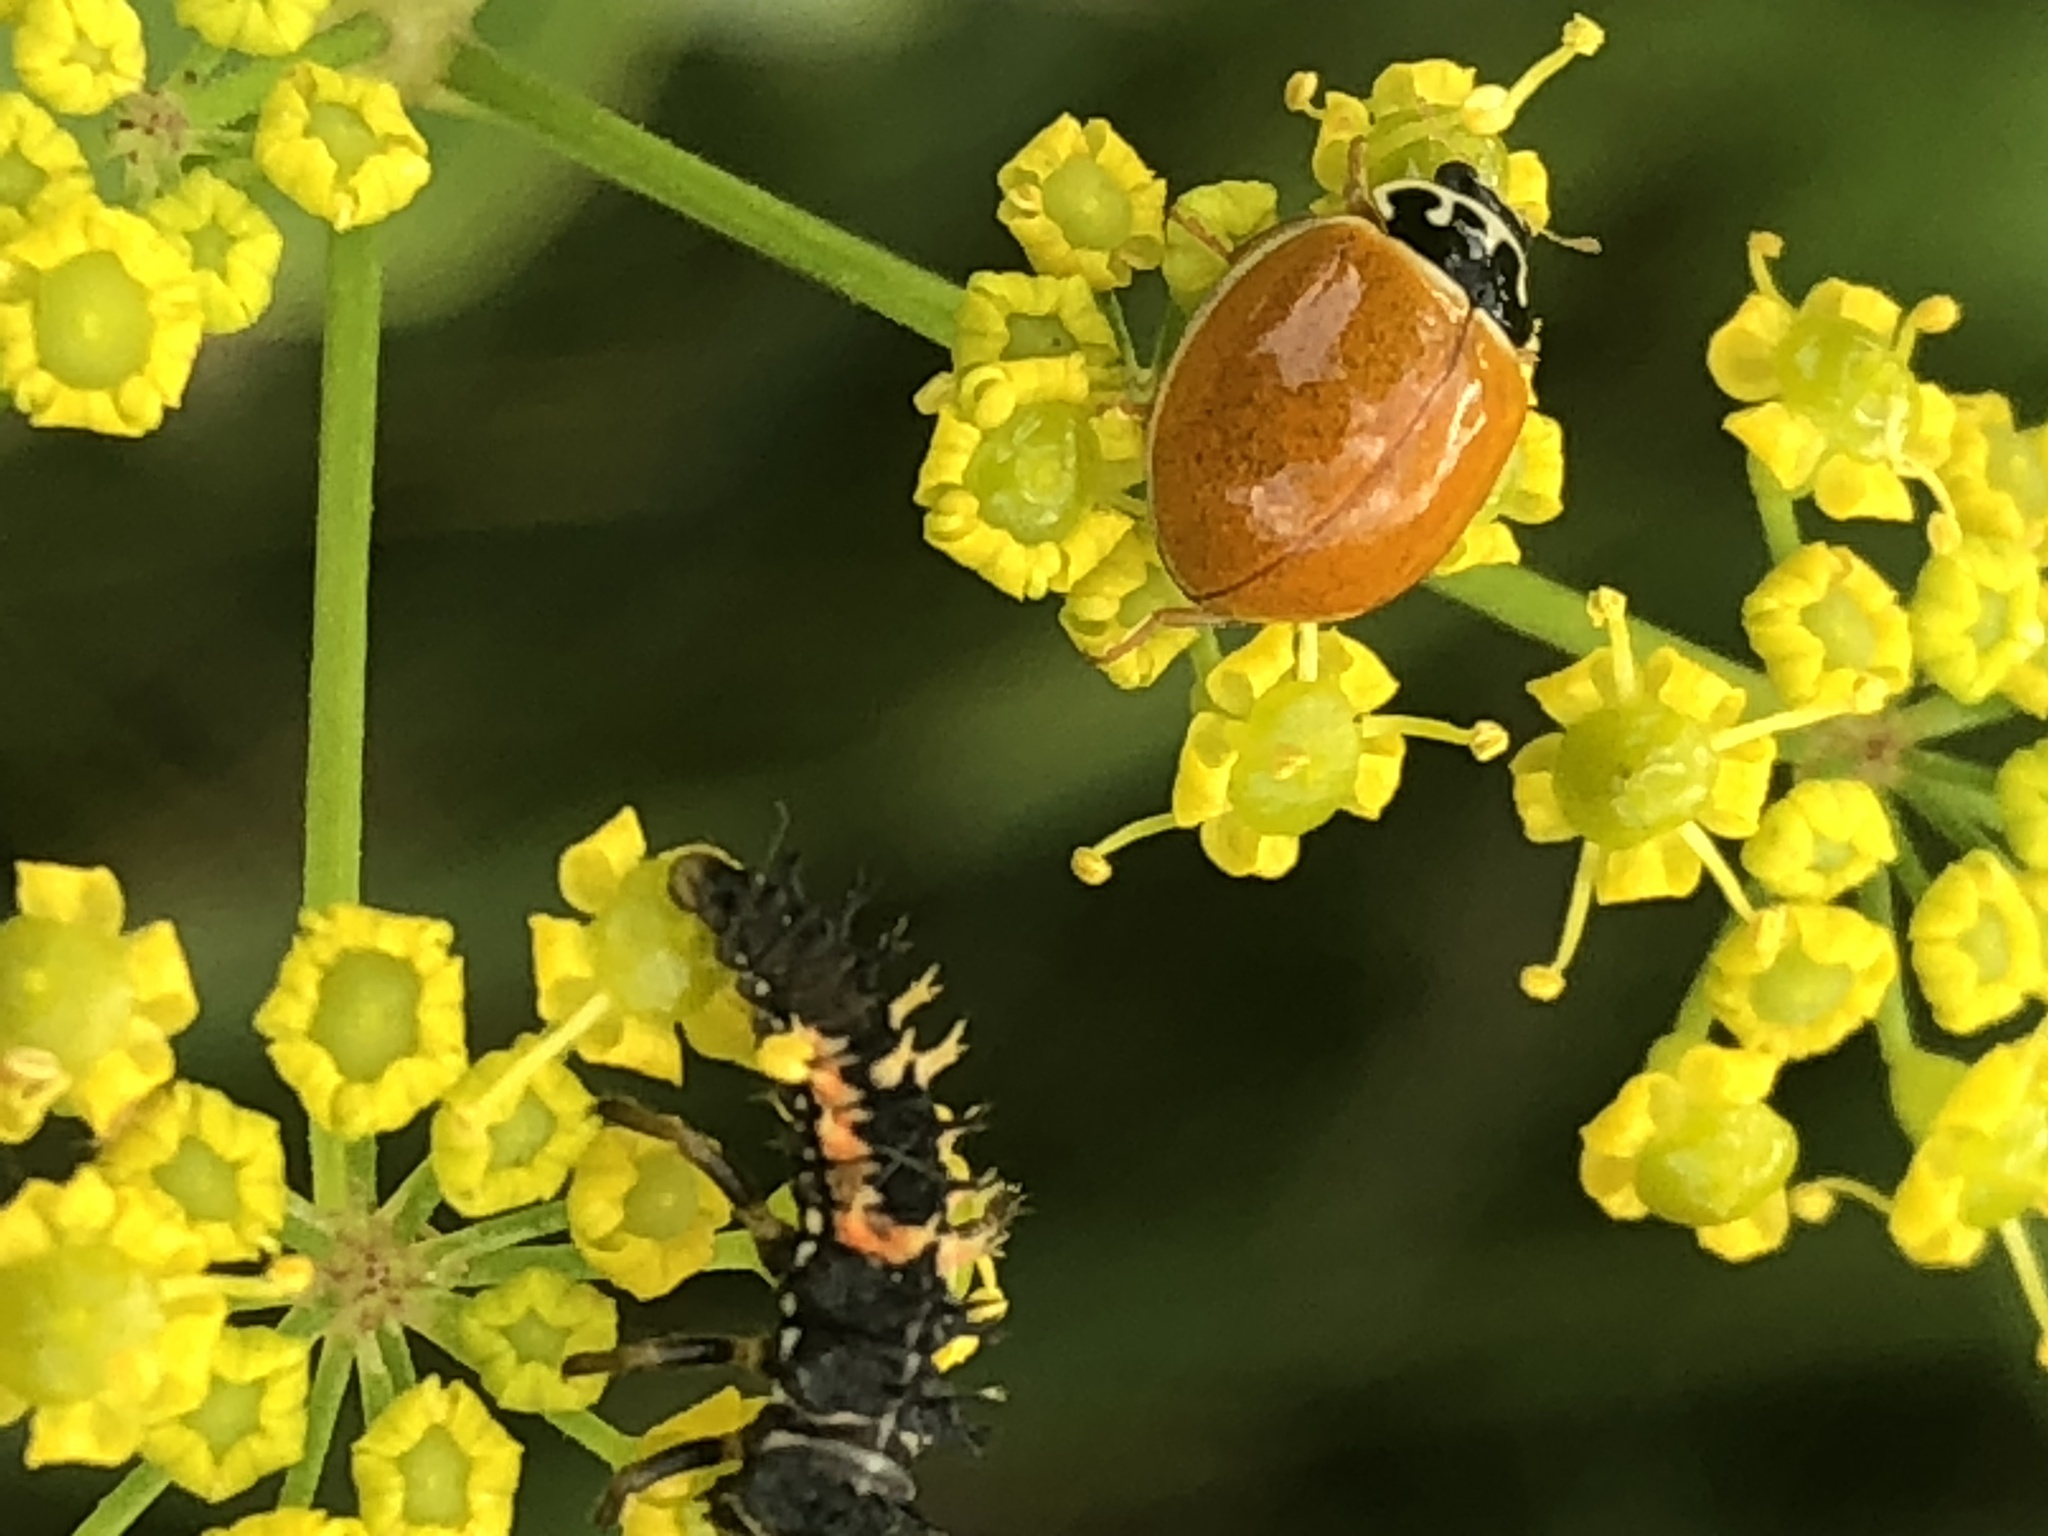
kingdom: Animalia
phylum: Arthropoda
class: Insecta
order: Coleoptera
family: Coccinellidae
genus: Cycloneda
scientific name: Cycloneda munda
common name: Polished lady beetle
